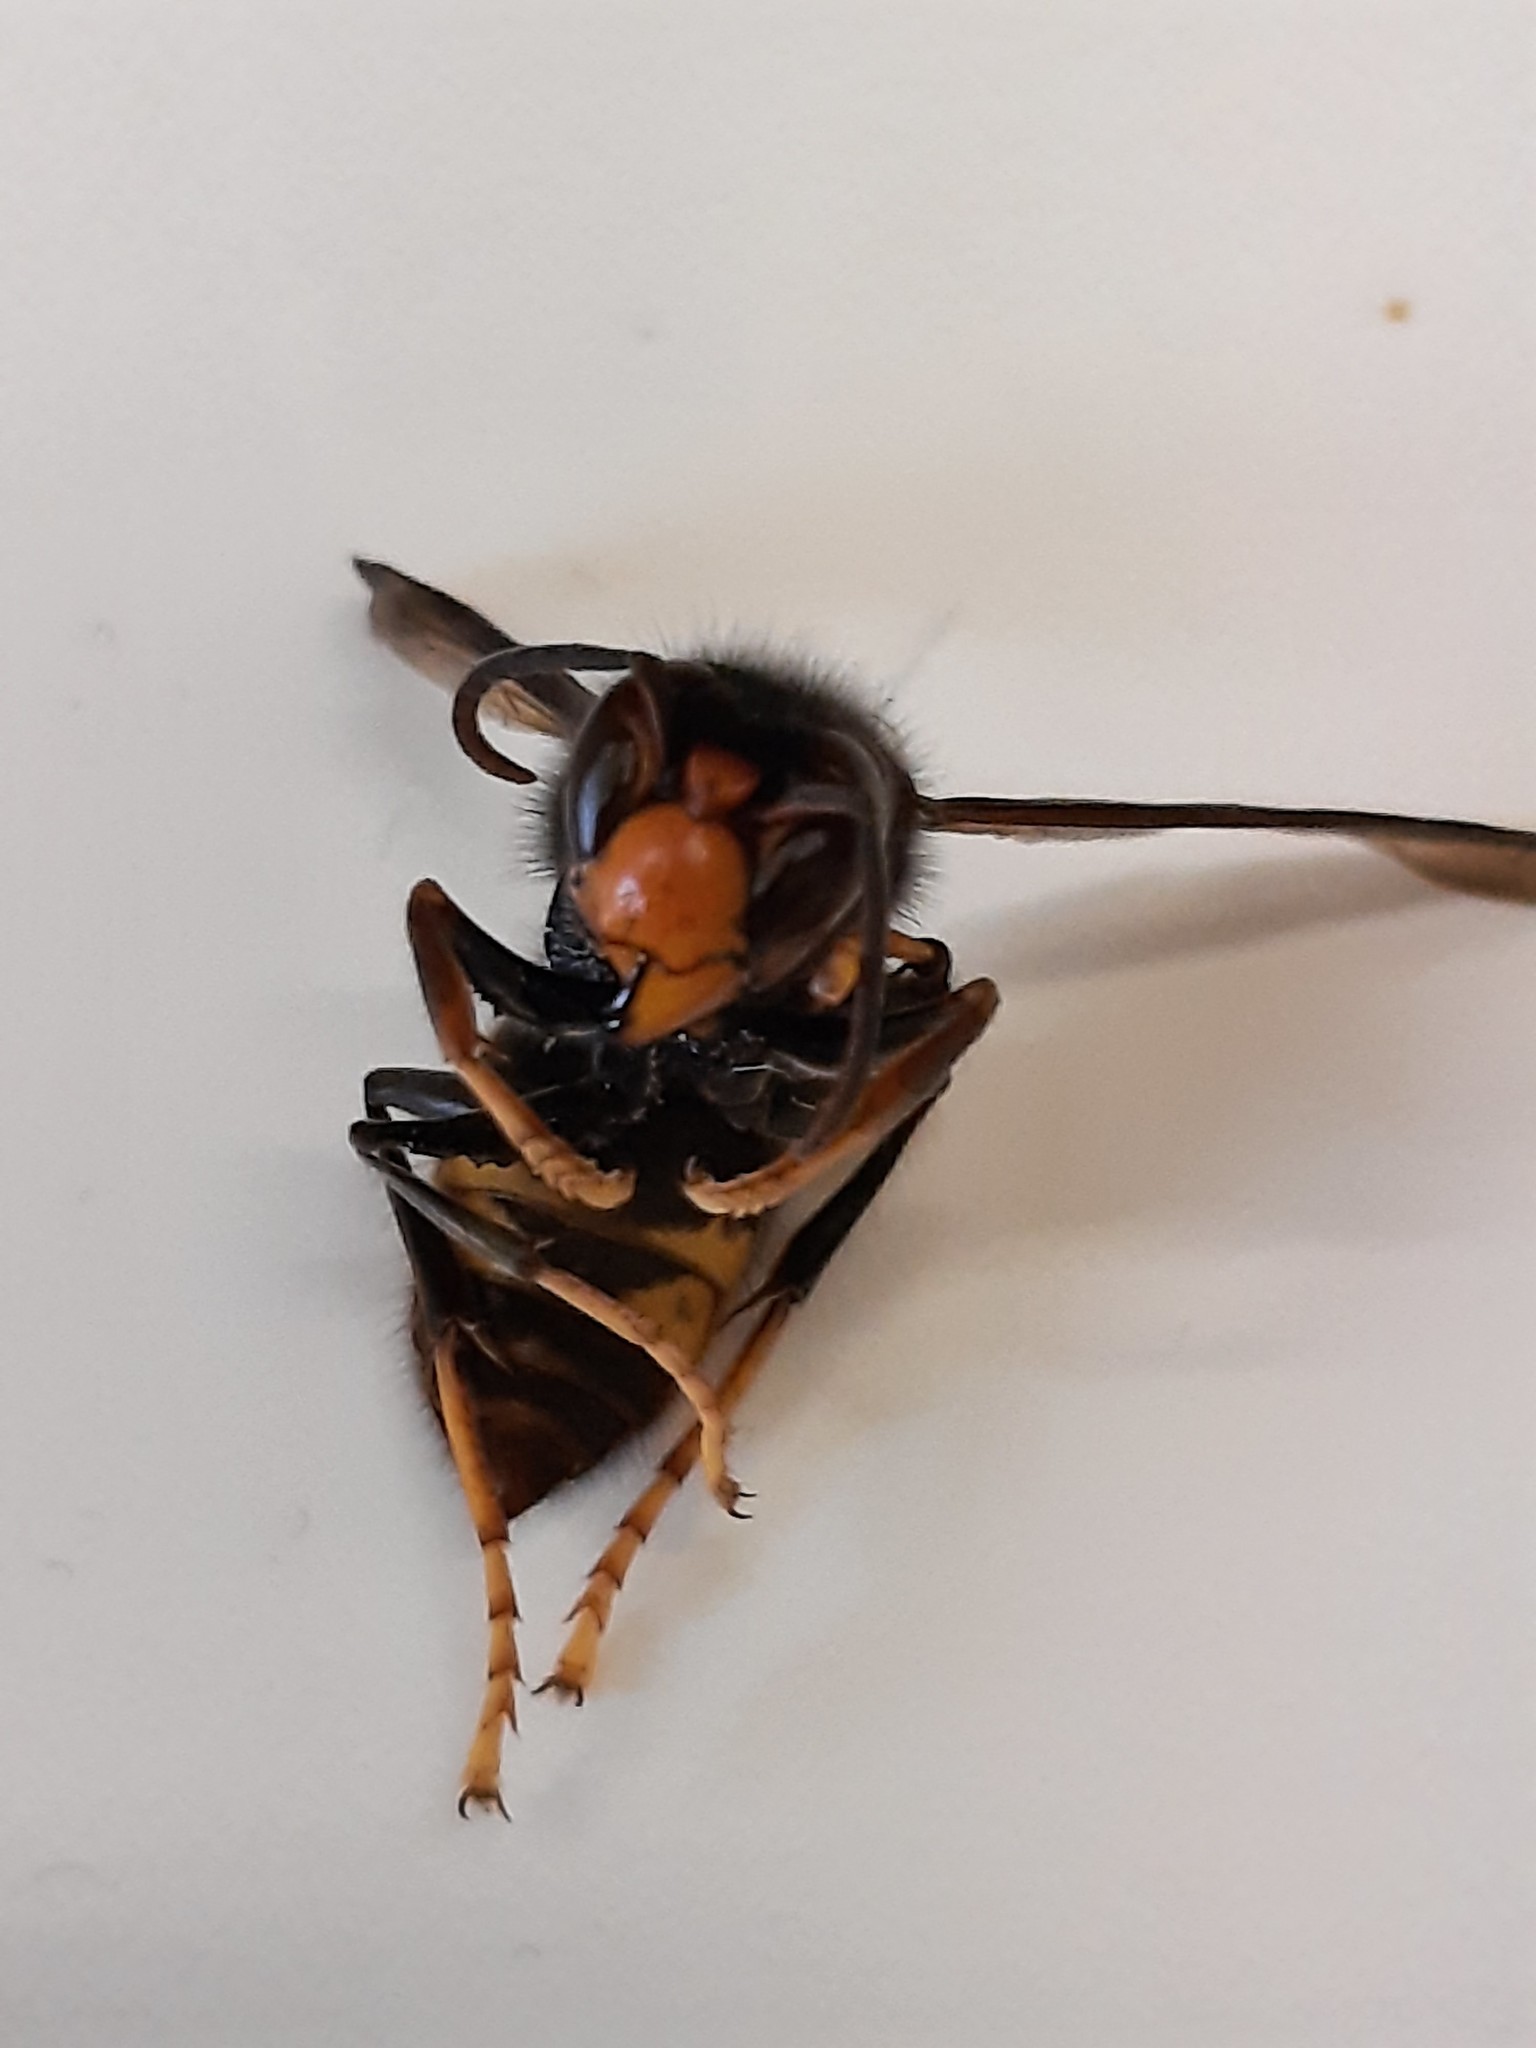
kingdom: Animalia
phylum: Arthropoda
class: Insecta
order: Hymenoptera
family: Vespidae
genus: Vespa
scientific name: Vespa velutina
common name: Asian hornet
